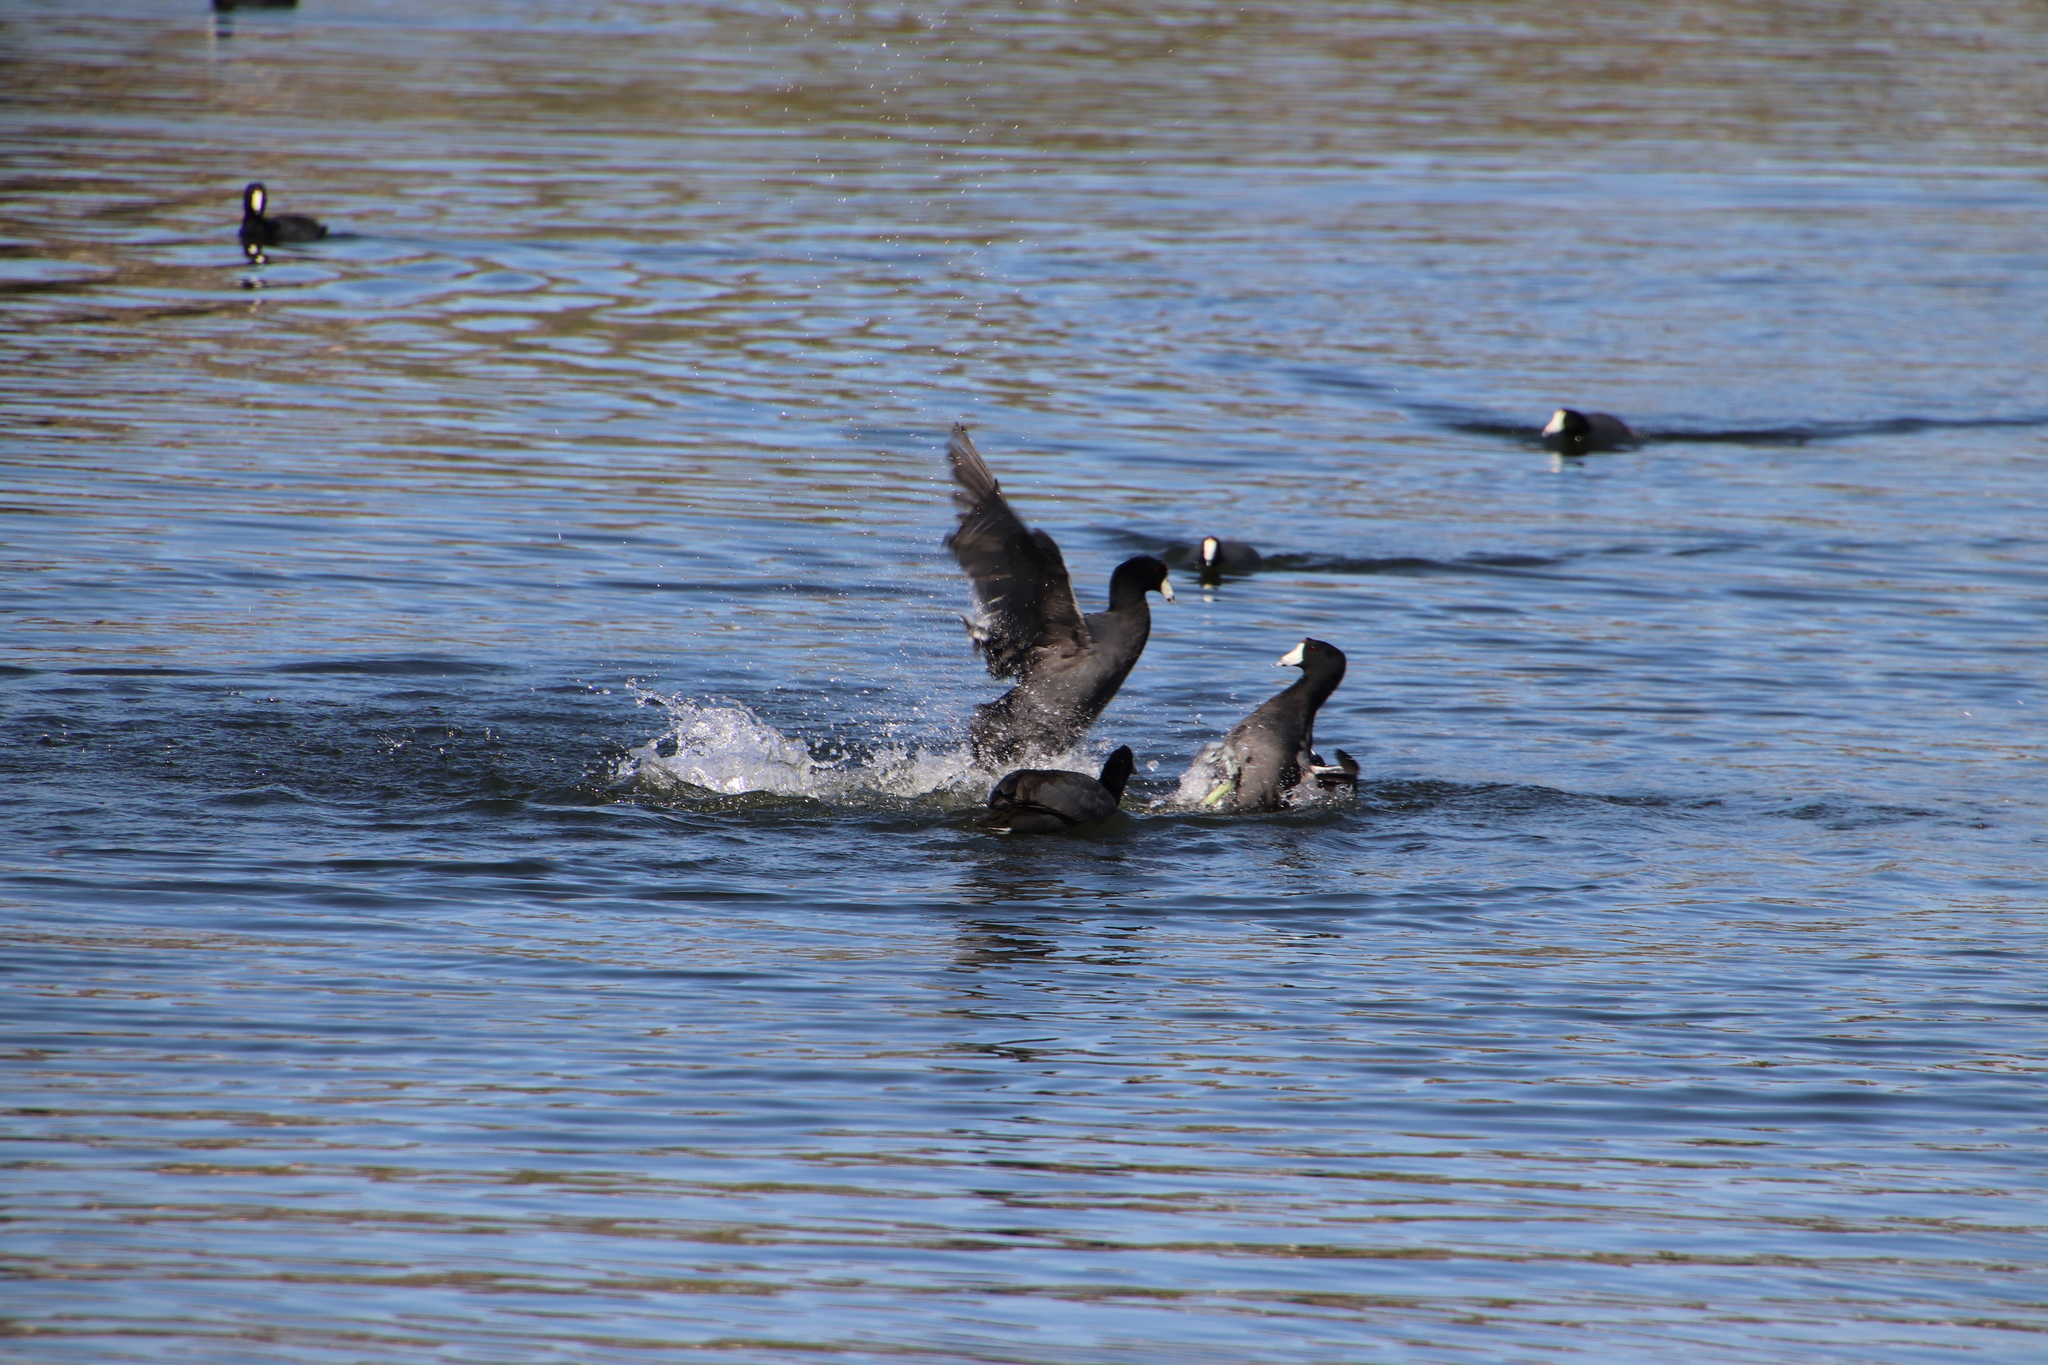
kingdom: Animalia
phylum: Chordata
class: Aves
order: Gruiformes
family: Rallidae
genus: Fulica
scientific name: Fulica americana
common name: American coot
